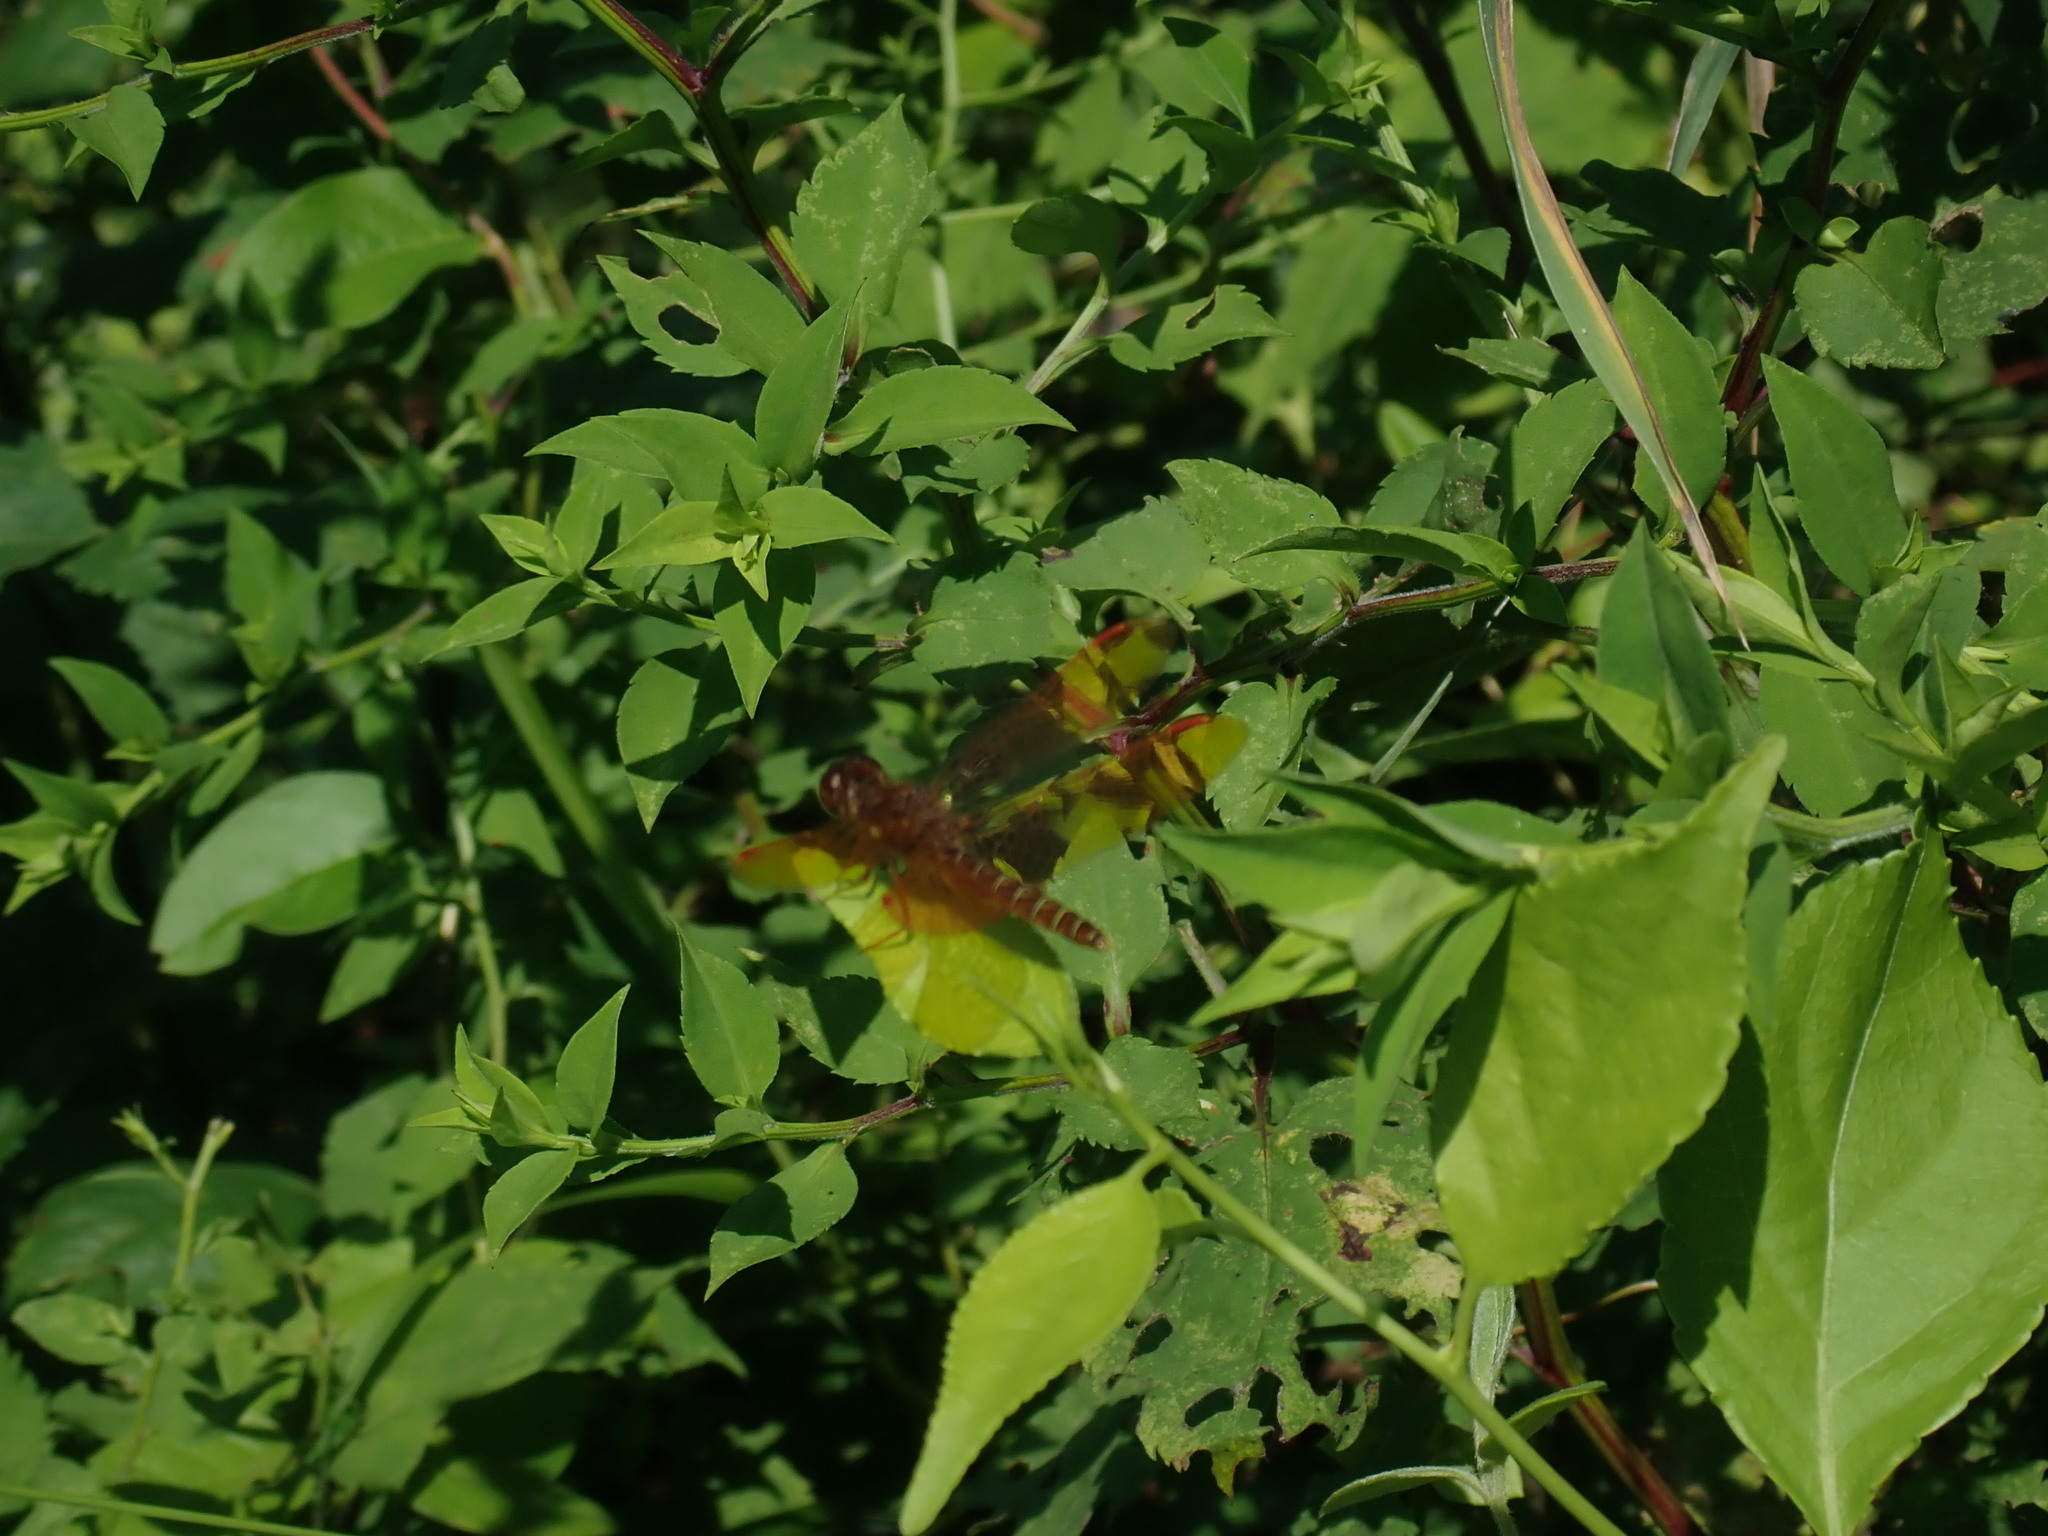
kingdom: Animalia
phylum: Arthropoda
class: Insecta
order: Odonata
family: Libellulidae
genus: Perithemis
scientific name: Perithemis tenera
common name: Eastern amberwing
